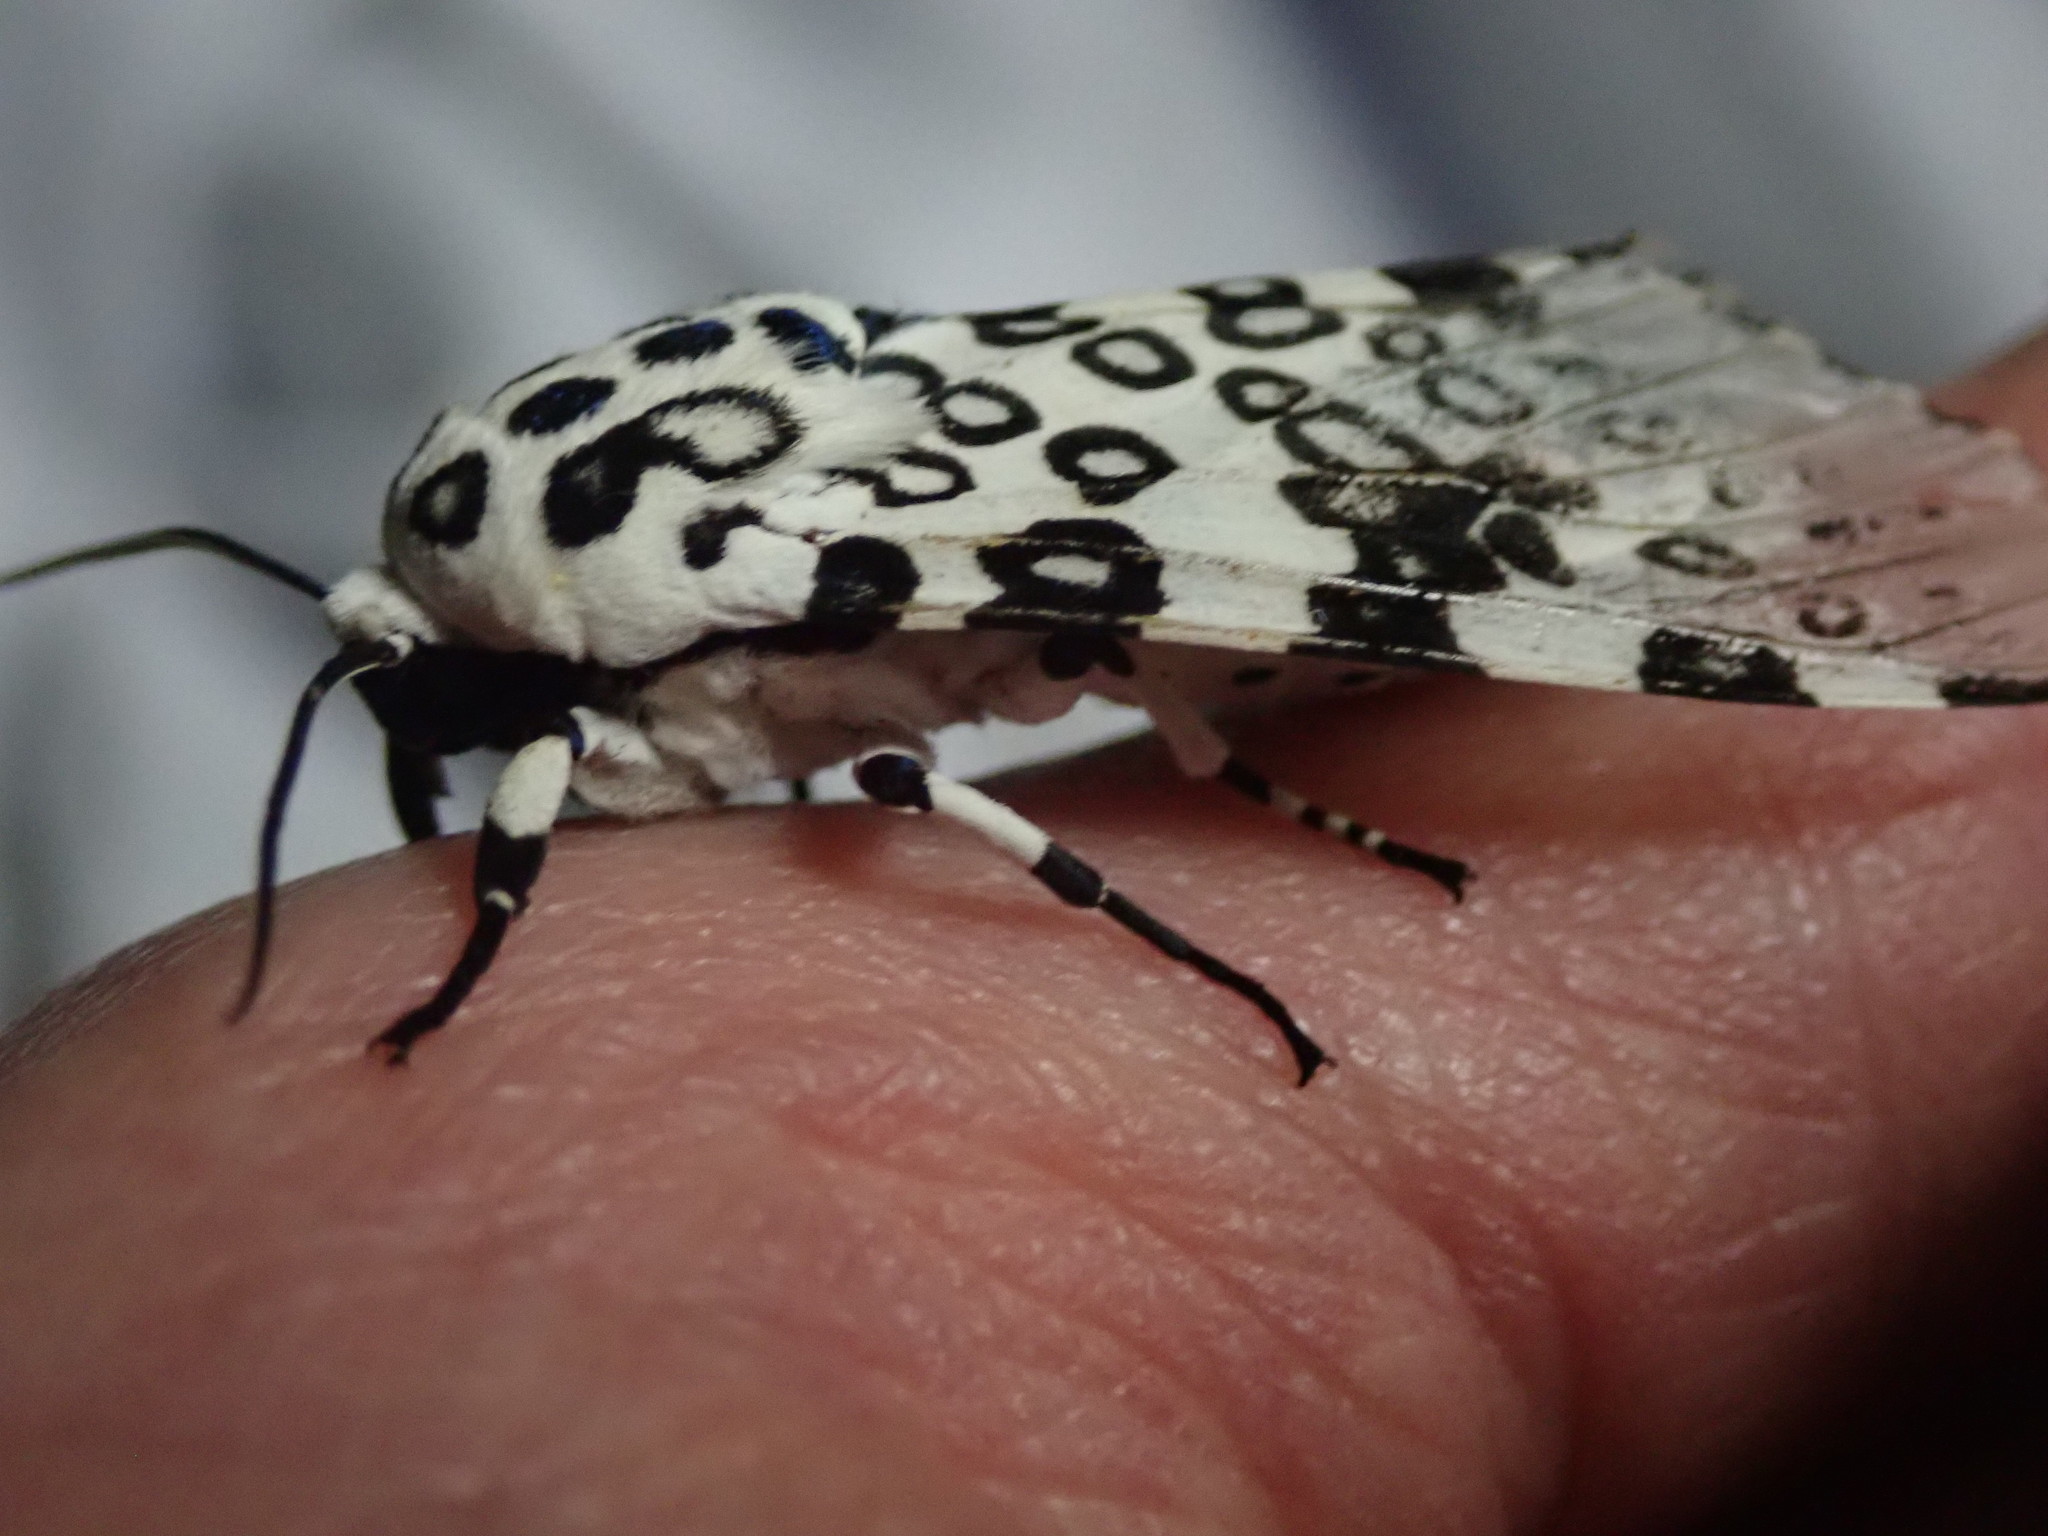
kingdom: Animalia
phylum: Arthropoda
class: Insecta
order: Lepidoptera
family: Erebidae
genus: Hypercompe
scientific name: Hypercompe scribonia
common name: Giant leopard moth
